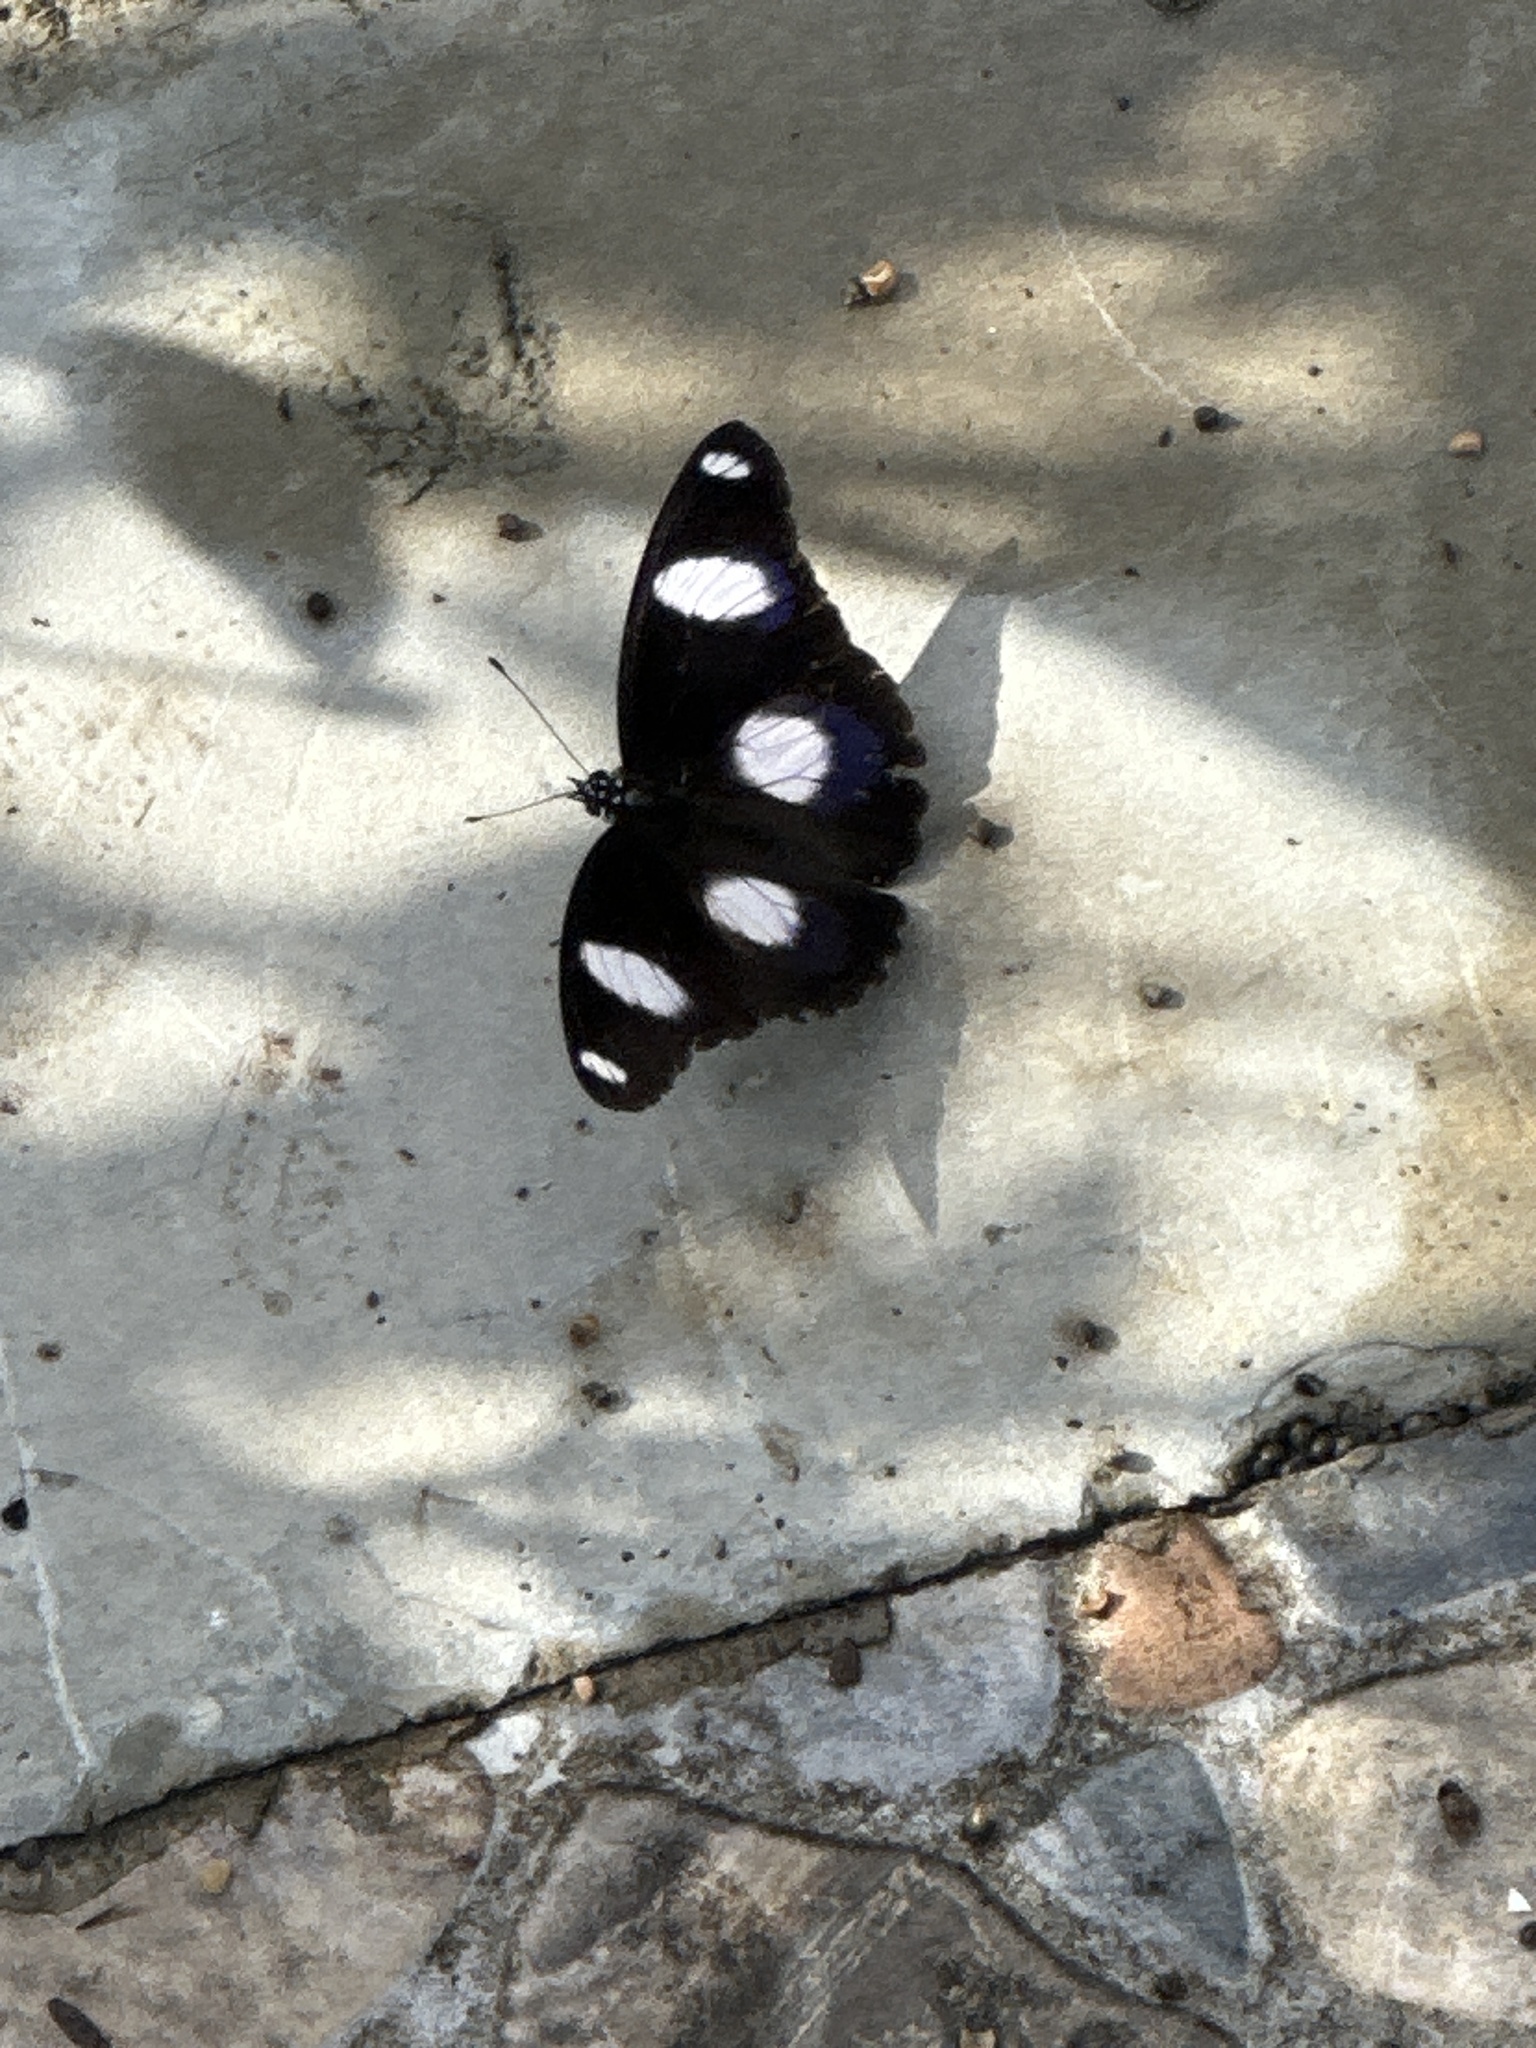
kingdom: Animalia
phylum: Arthropoda
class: Insecta
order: Lepidoptera
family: Nymphalidae
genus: Hypolimnas
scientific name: Hypolimnas misippus
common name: False plain tiger
